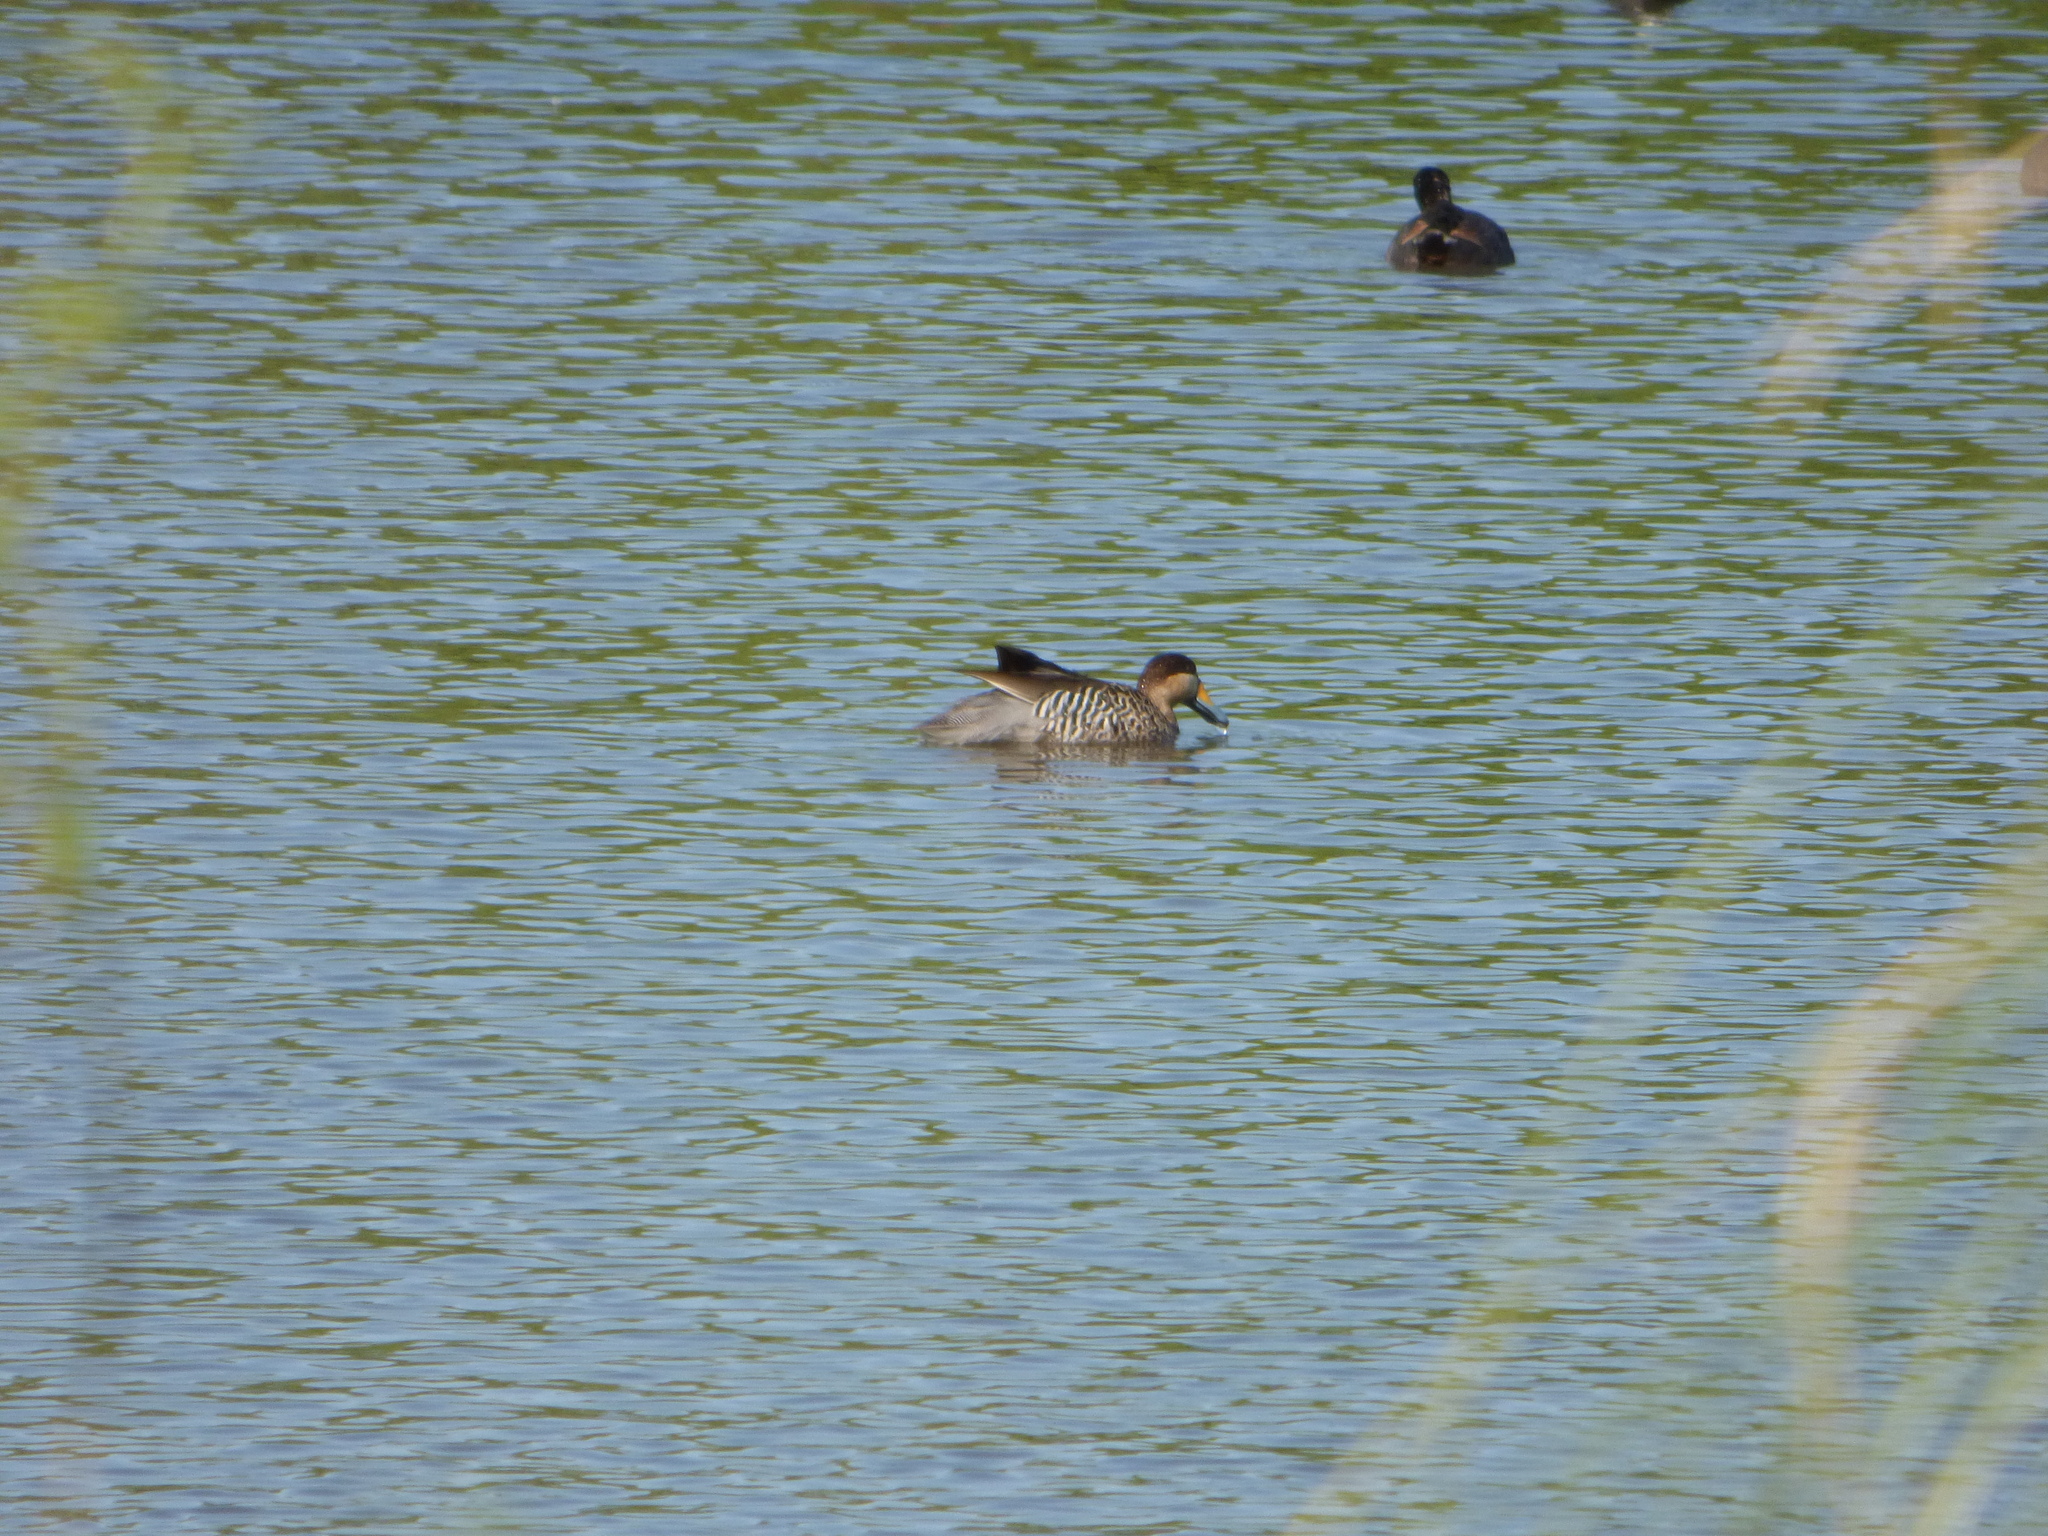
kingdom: Animalia
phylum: Chordata
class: Aves
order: Anseriformes
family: Anatidae
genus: Spatula
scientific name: Spatula versicolor
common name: Silver teal
